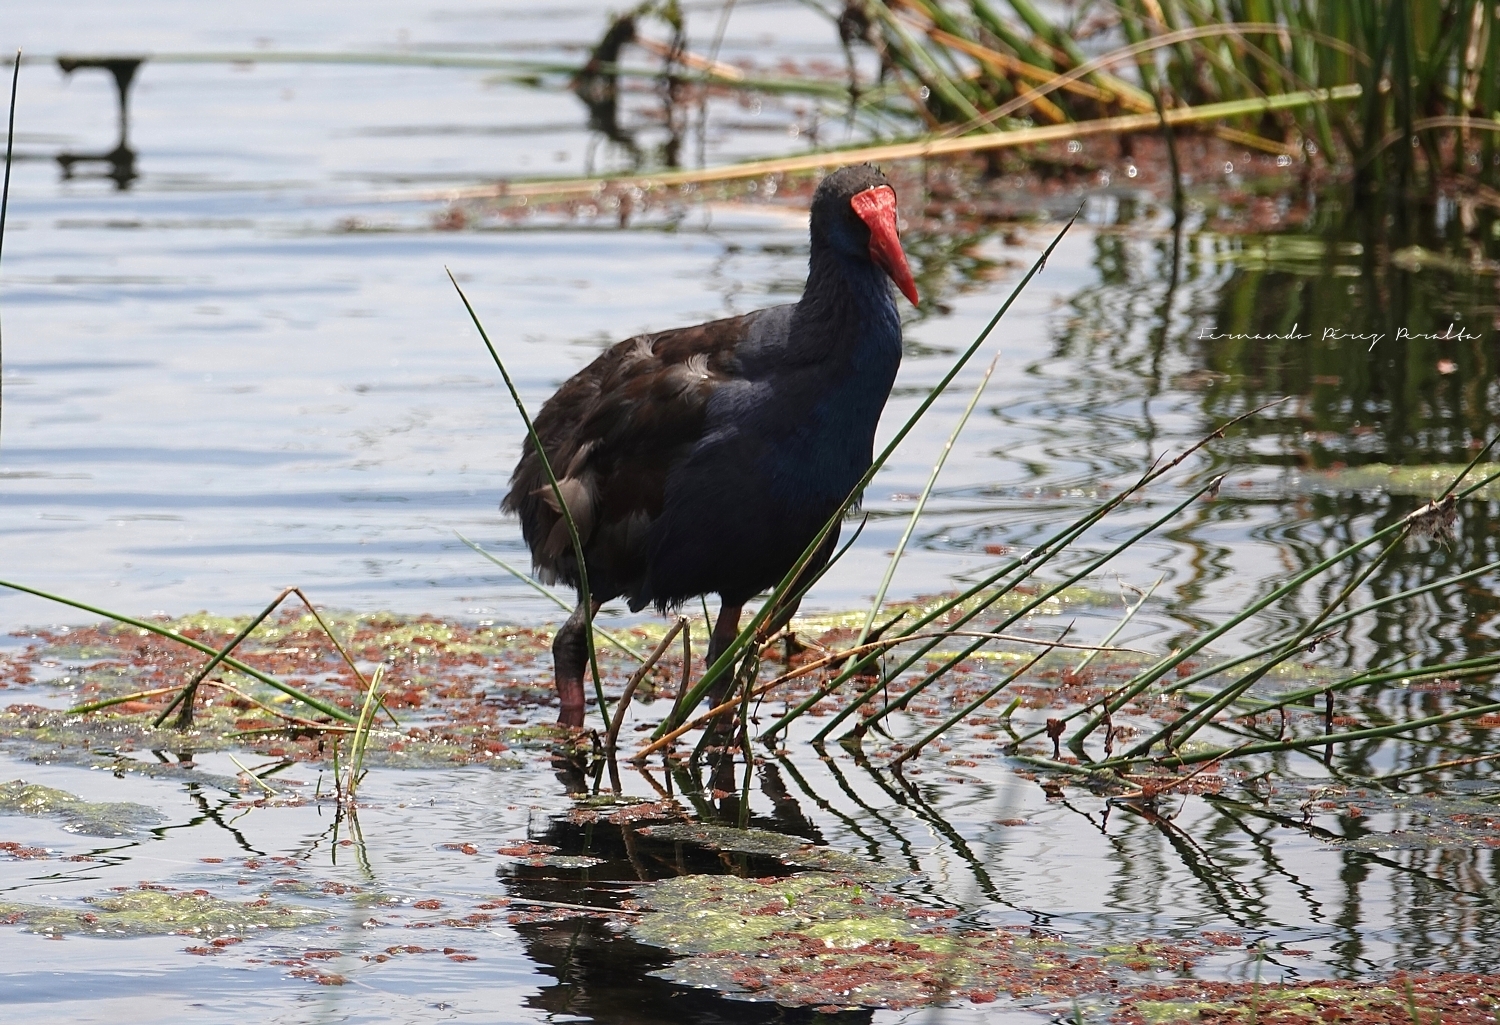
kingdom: Animalia
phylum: Chordata
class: Aves
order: Gruiformes
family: Rallidae
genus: Porphyrio
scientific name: Porphyrio melanotus
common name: Australasian swamphen
